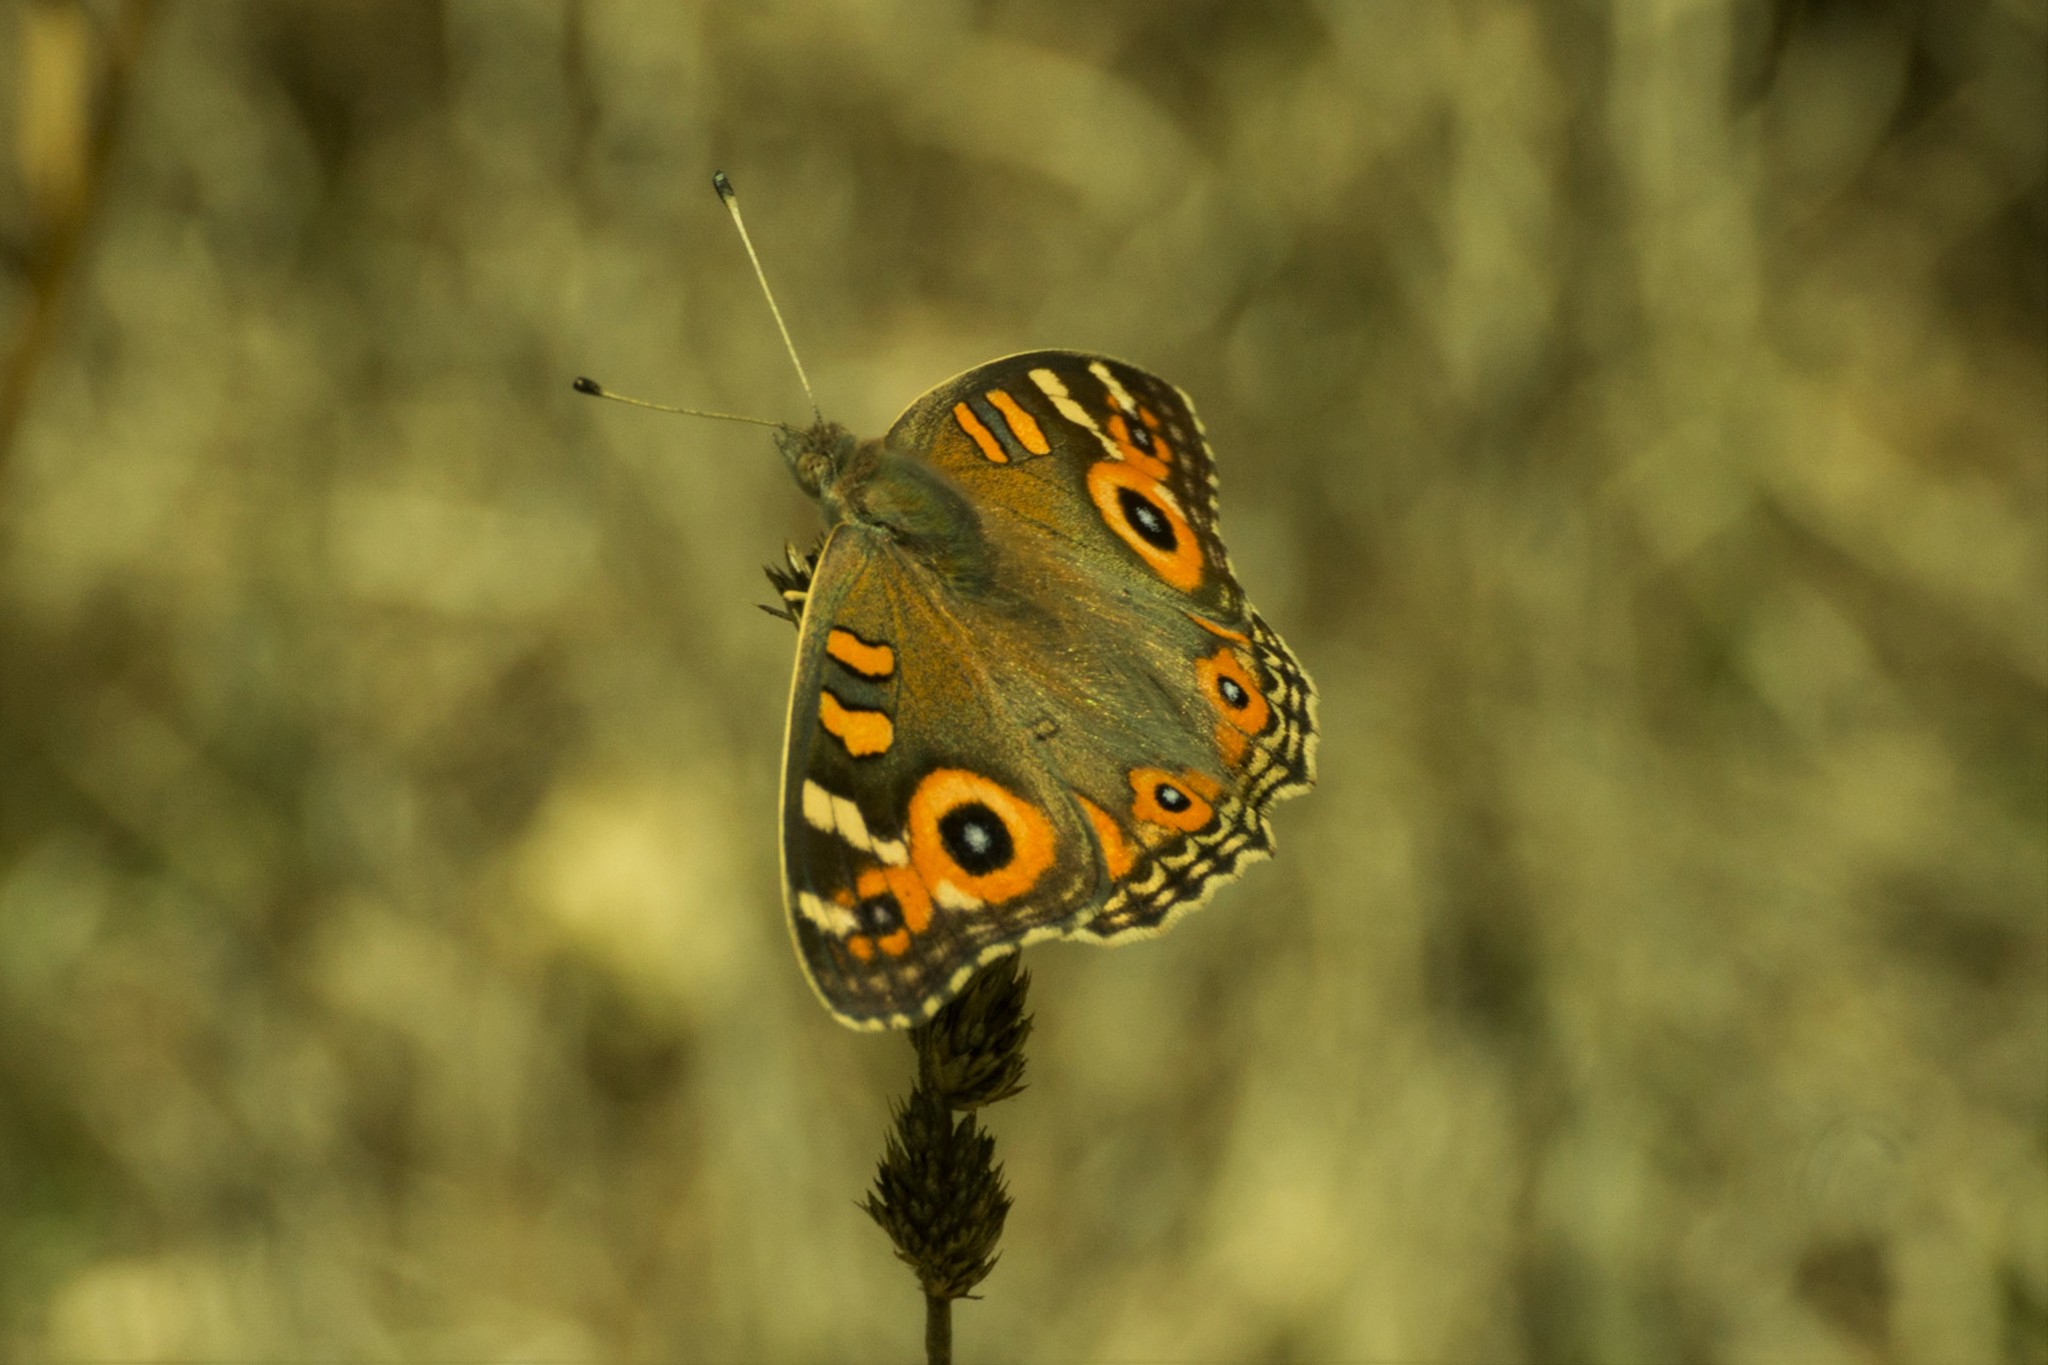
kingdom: Animalia
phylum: Arthropoda
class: Insecta
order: Lepidoptera
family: Nymphalidae
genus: Junonia
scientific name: Junonia villida
